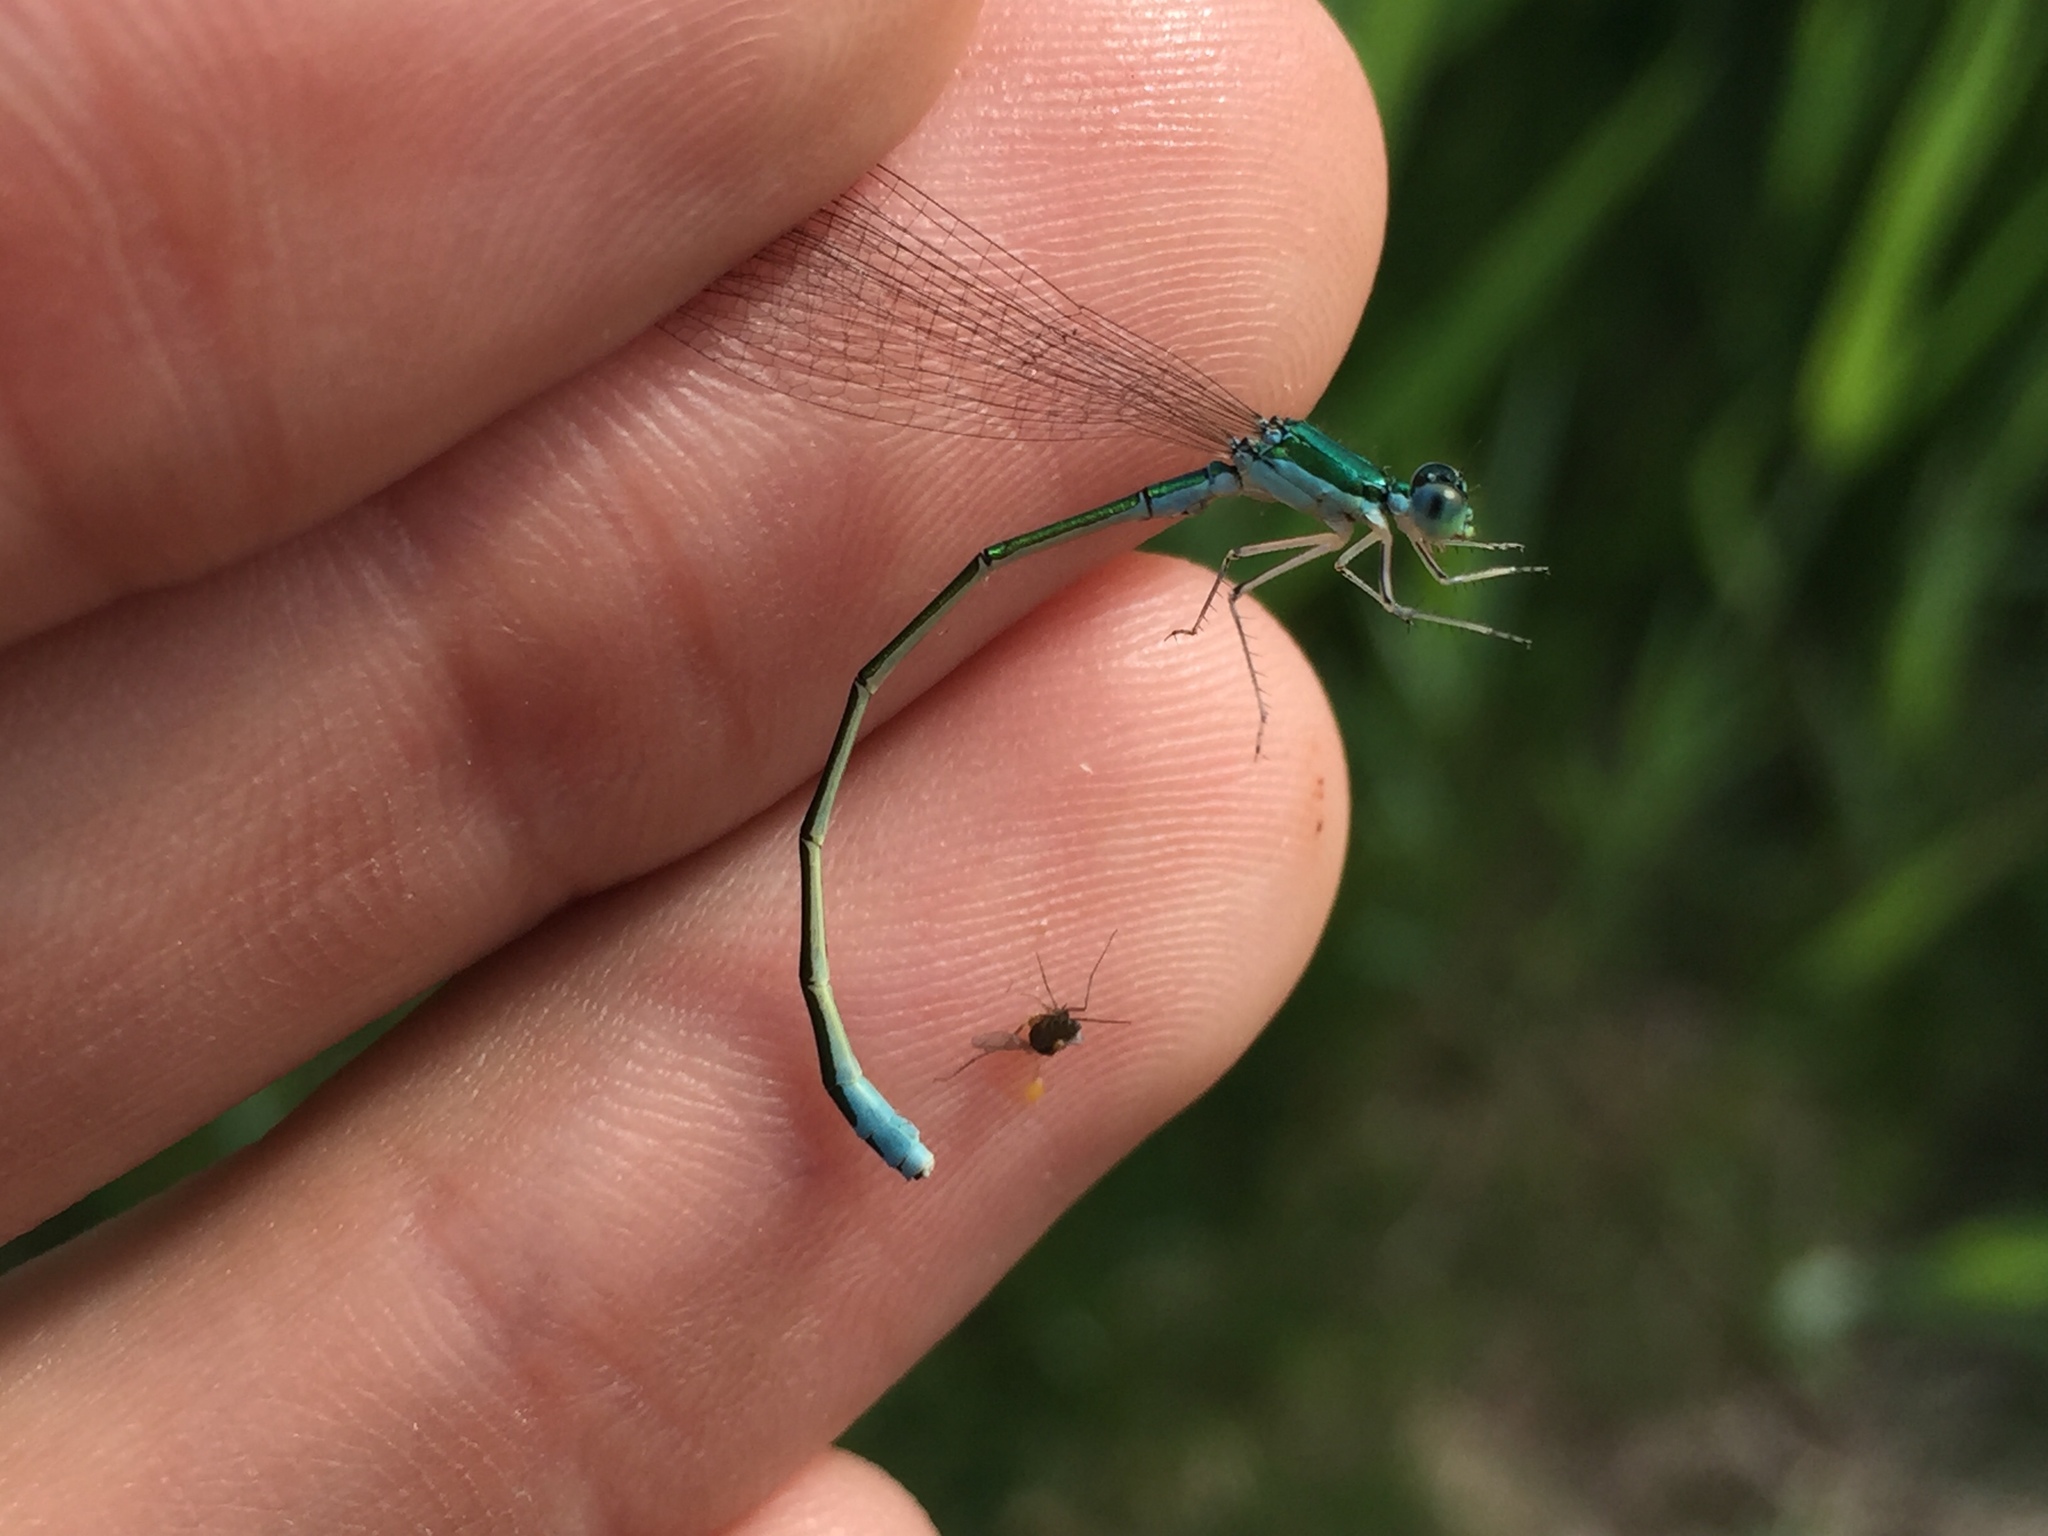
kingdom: Animalia
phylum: Arthropoda
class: Insecta
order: Odonata
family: Coenagrionidae
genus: Nehalennia
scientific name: Nehalennia irene
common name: Sedge sprite
